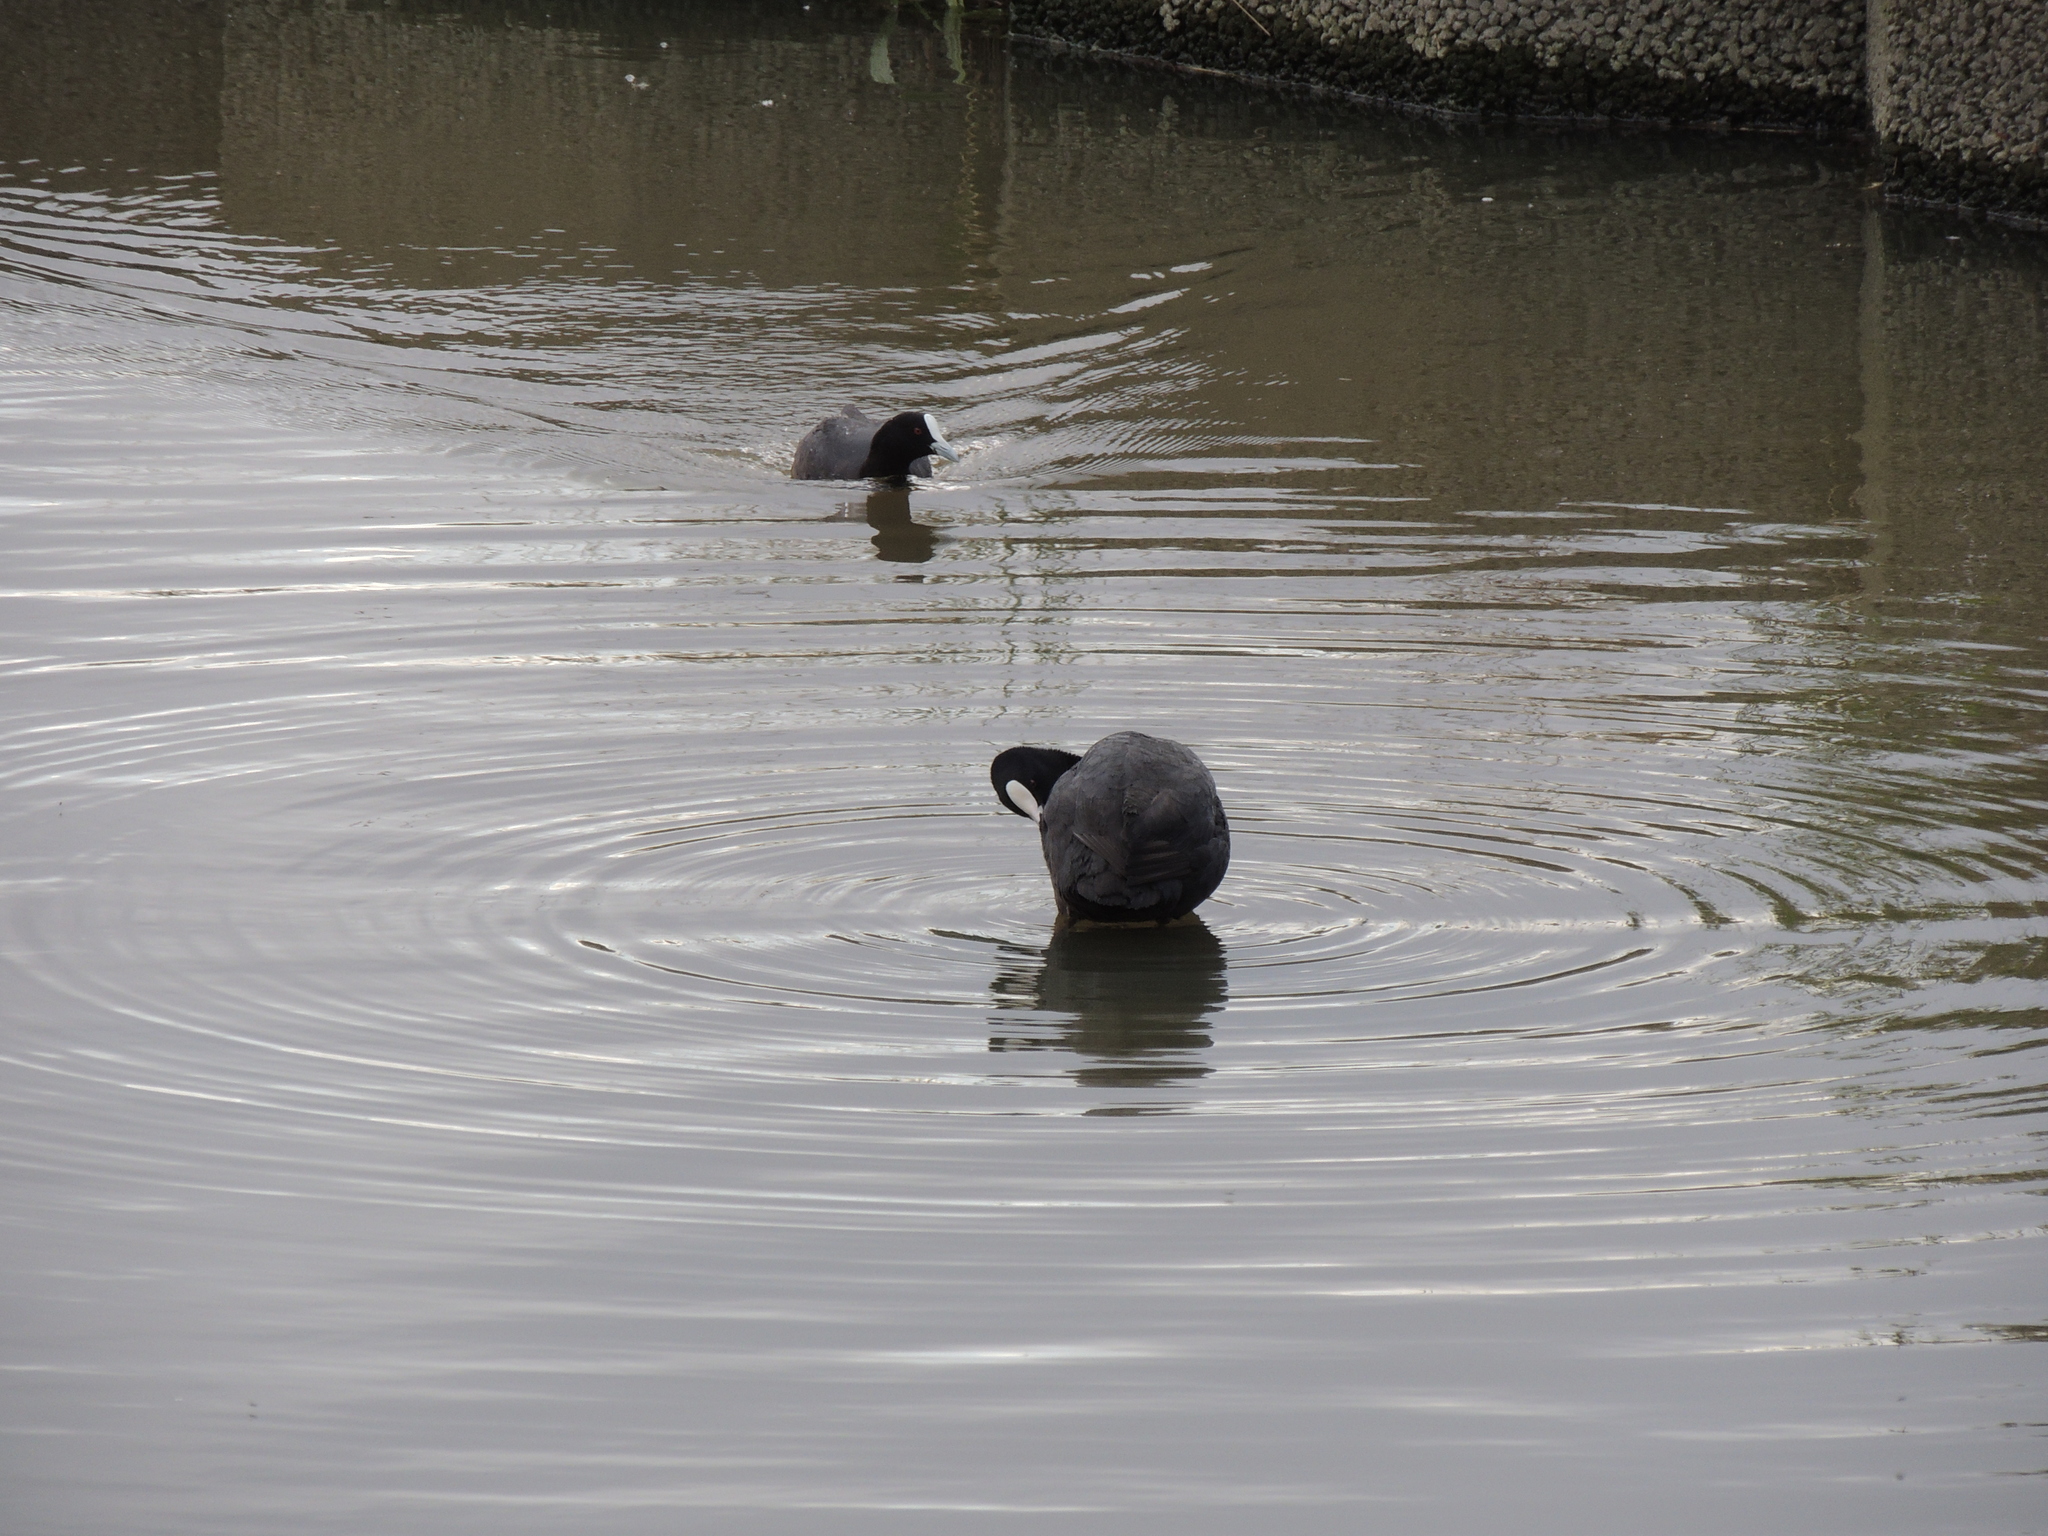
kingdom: Animalia
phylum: Chordata
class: Aves
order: Gruiformes
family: Rallidae
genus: Fulica
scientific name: Fulica atra
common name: Eurasian coot
